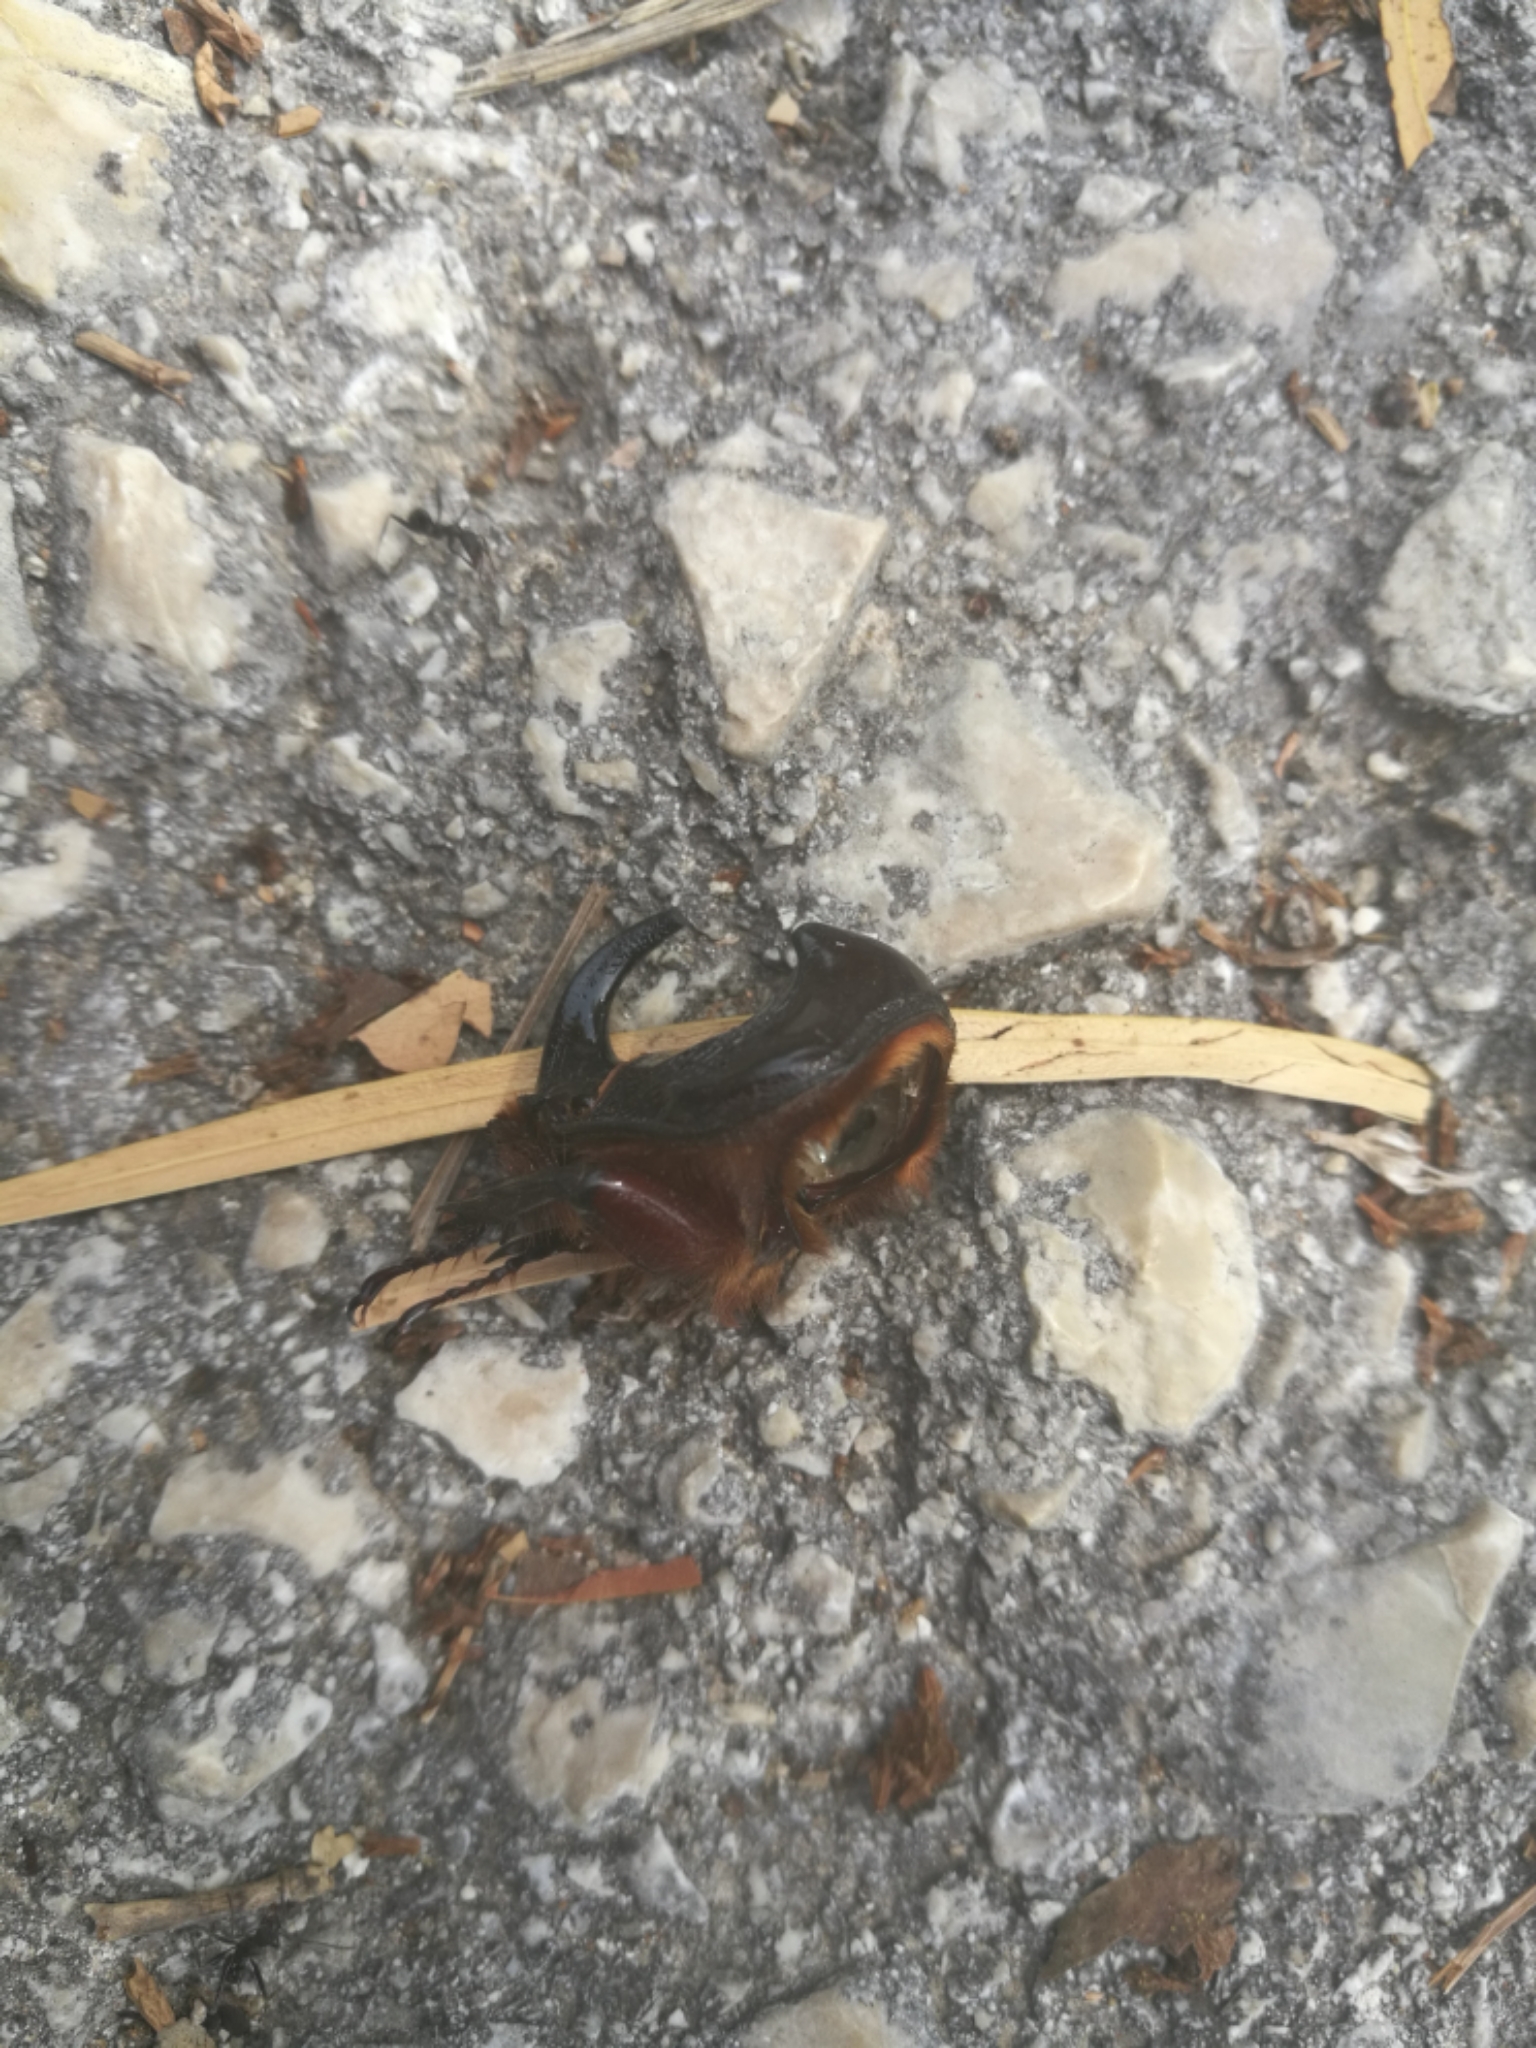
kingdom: Animalia
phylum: Arthropoda
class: Insecta
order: Coleoptera
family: Scarabaeidae
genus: Oryctes
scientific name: Oryctes nasicornis
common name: European rhinoceros beetle
